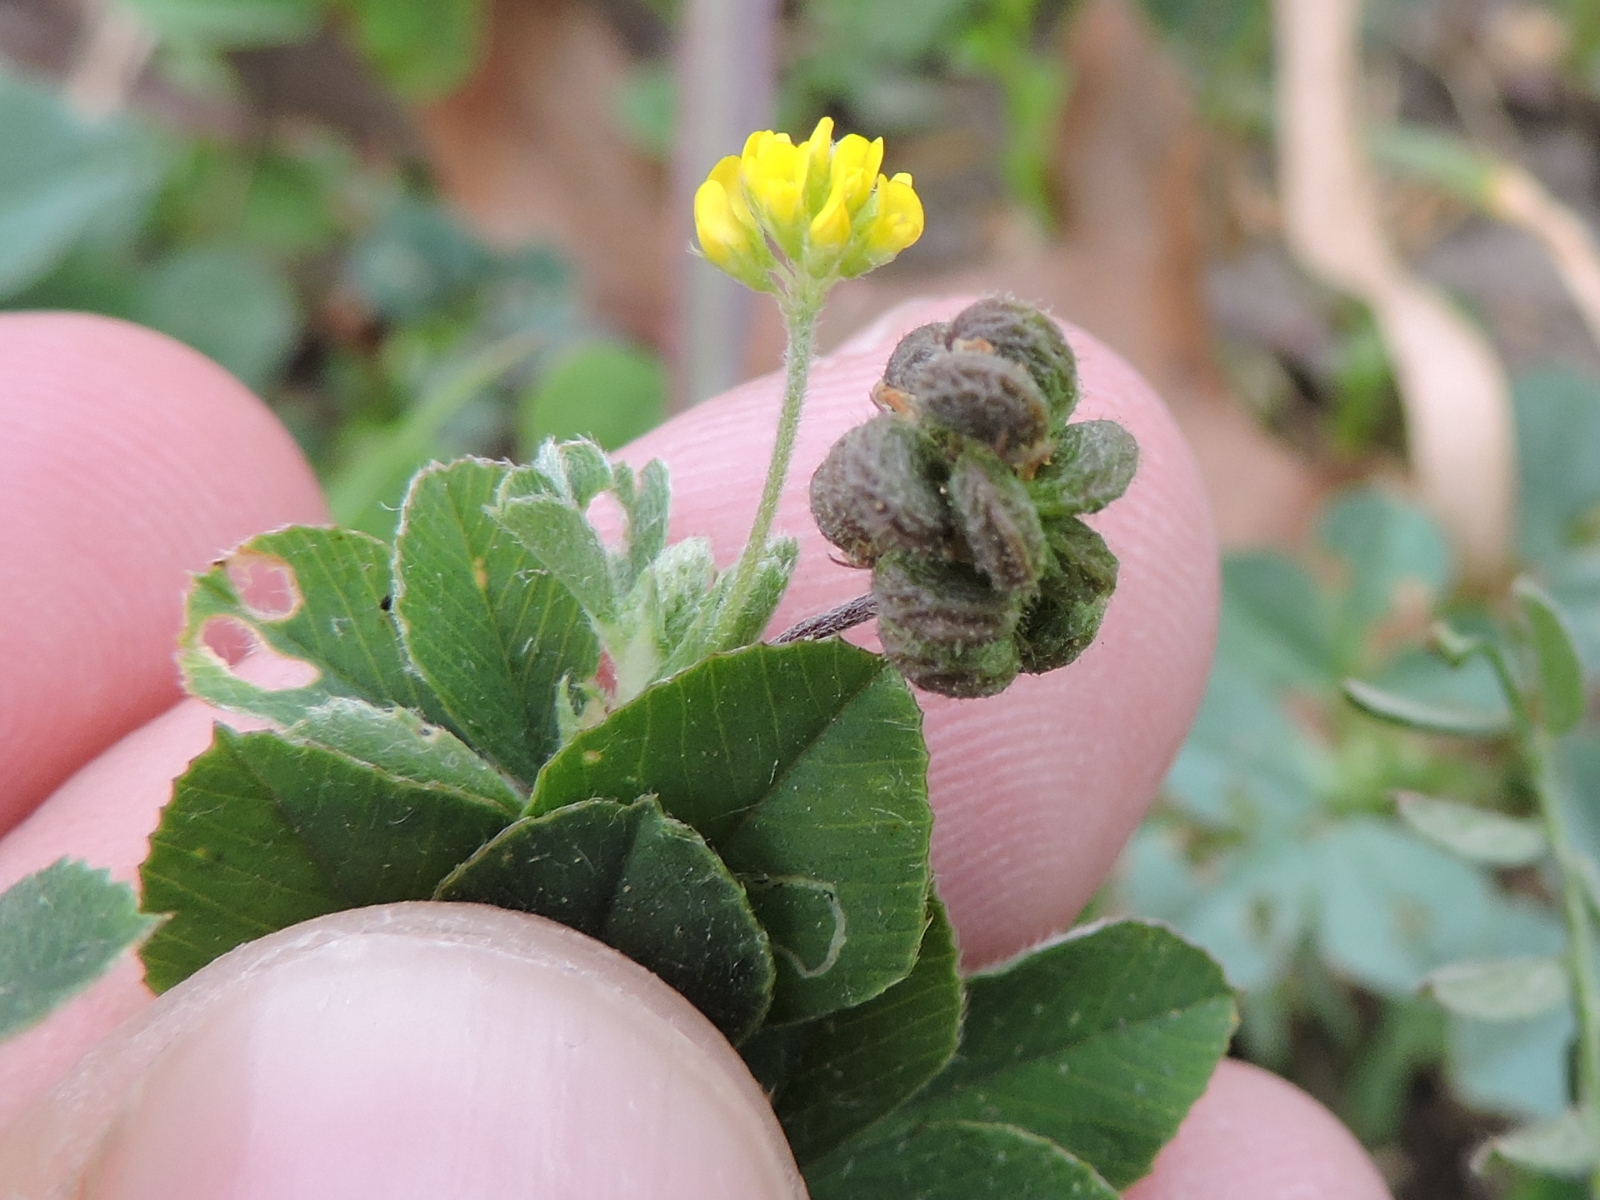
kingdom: Plantae
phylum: Tracheophyta
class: Magnoliopsida
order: Fabales
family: Fabaceae
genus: Medicago
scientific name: Medicago lupulina
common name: Black medick
